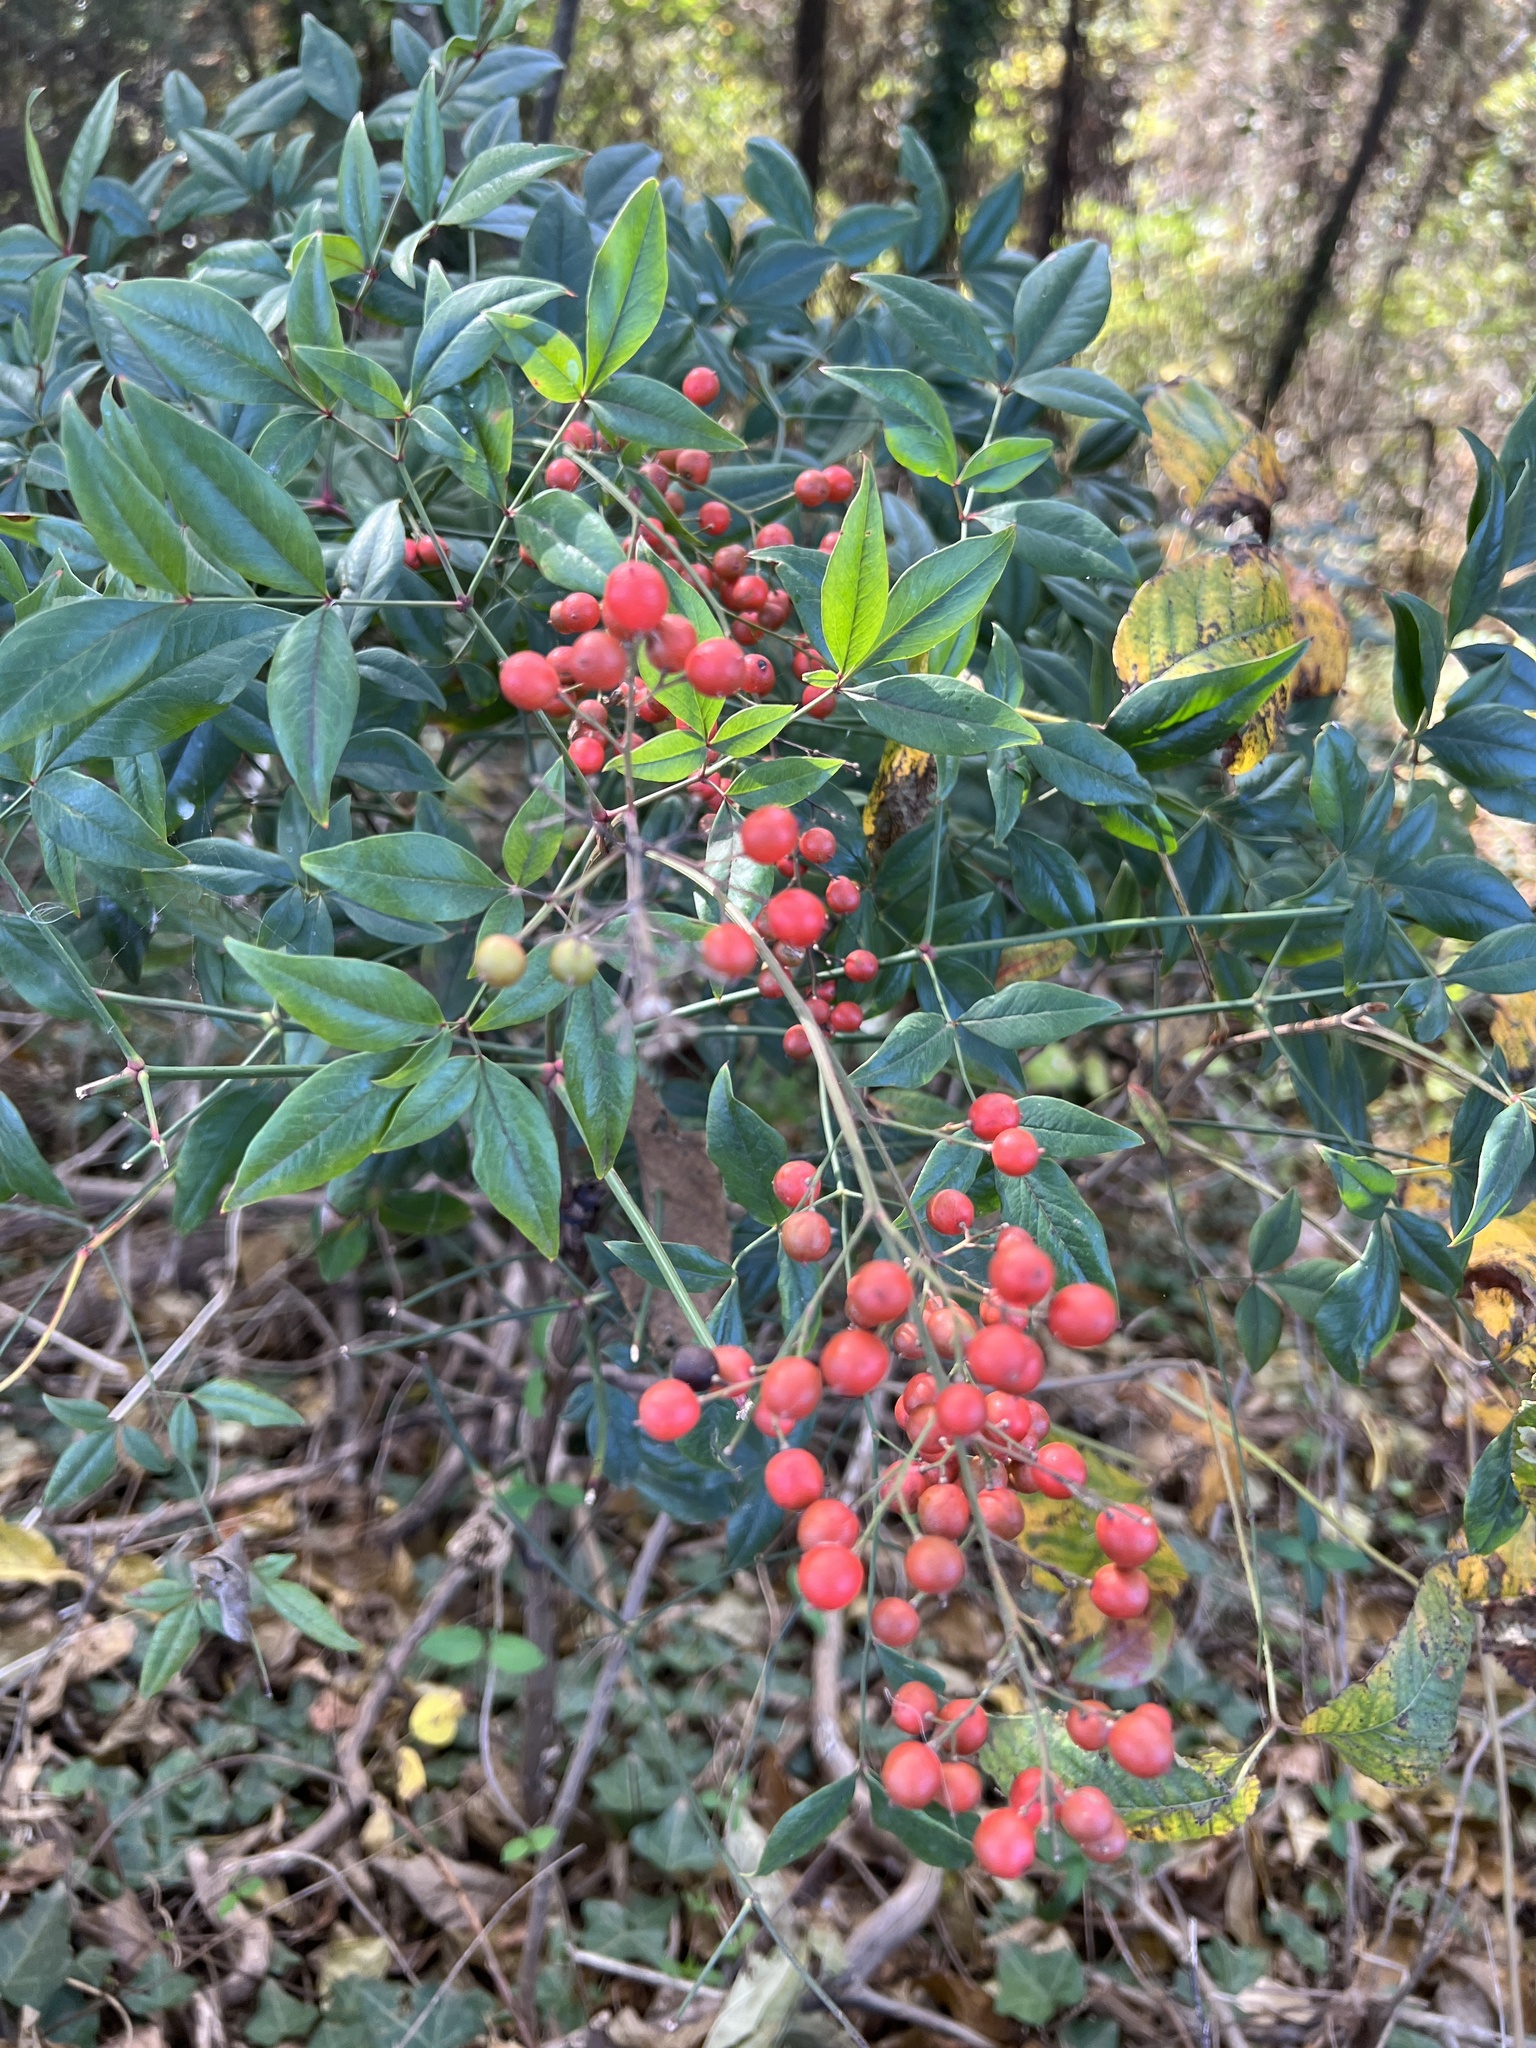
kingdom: Plantae
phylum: Tracheophyta
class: Magnoliopsida
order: Ranunculales
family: Berberidaceae
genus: Nandina
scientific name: Nandina domestica
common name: Sacred bamboo
